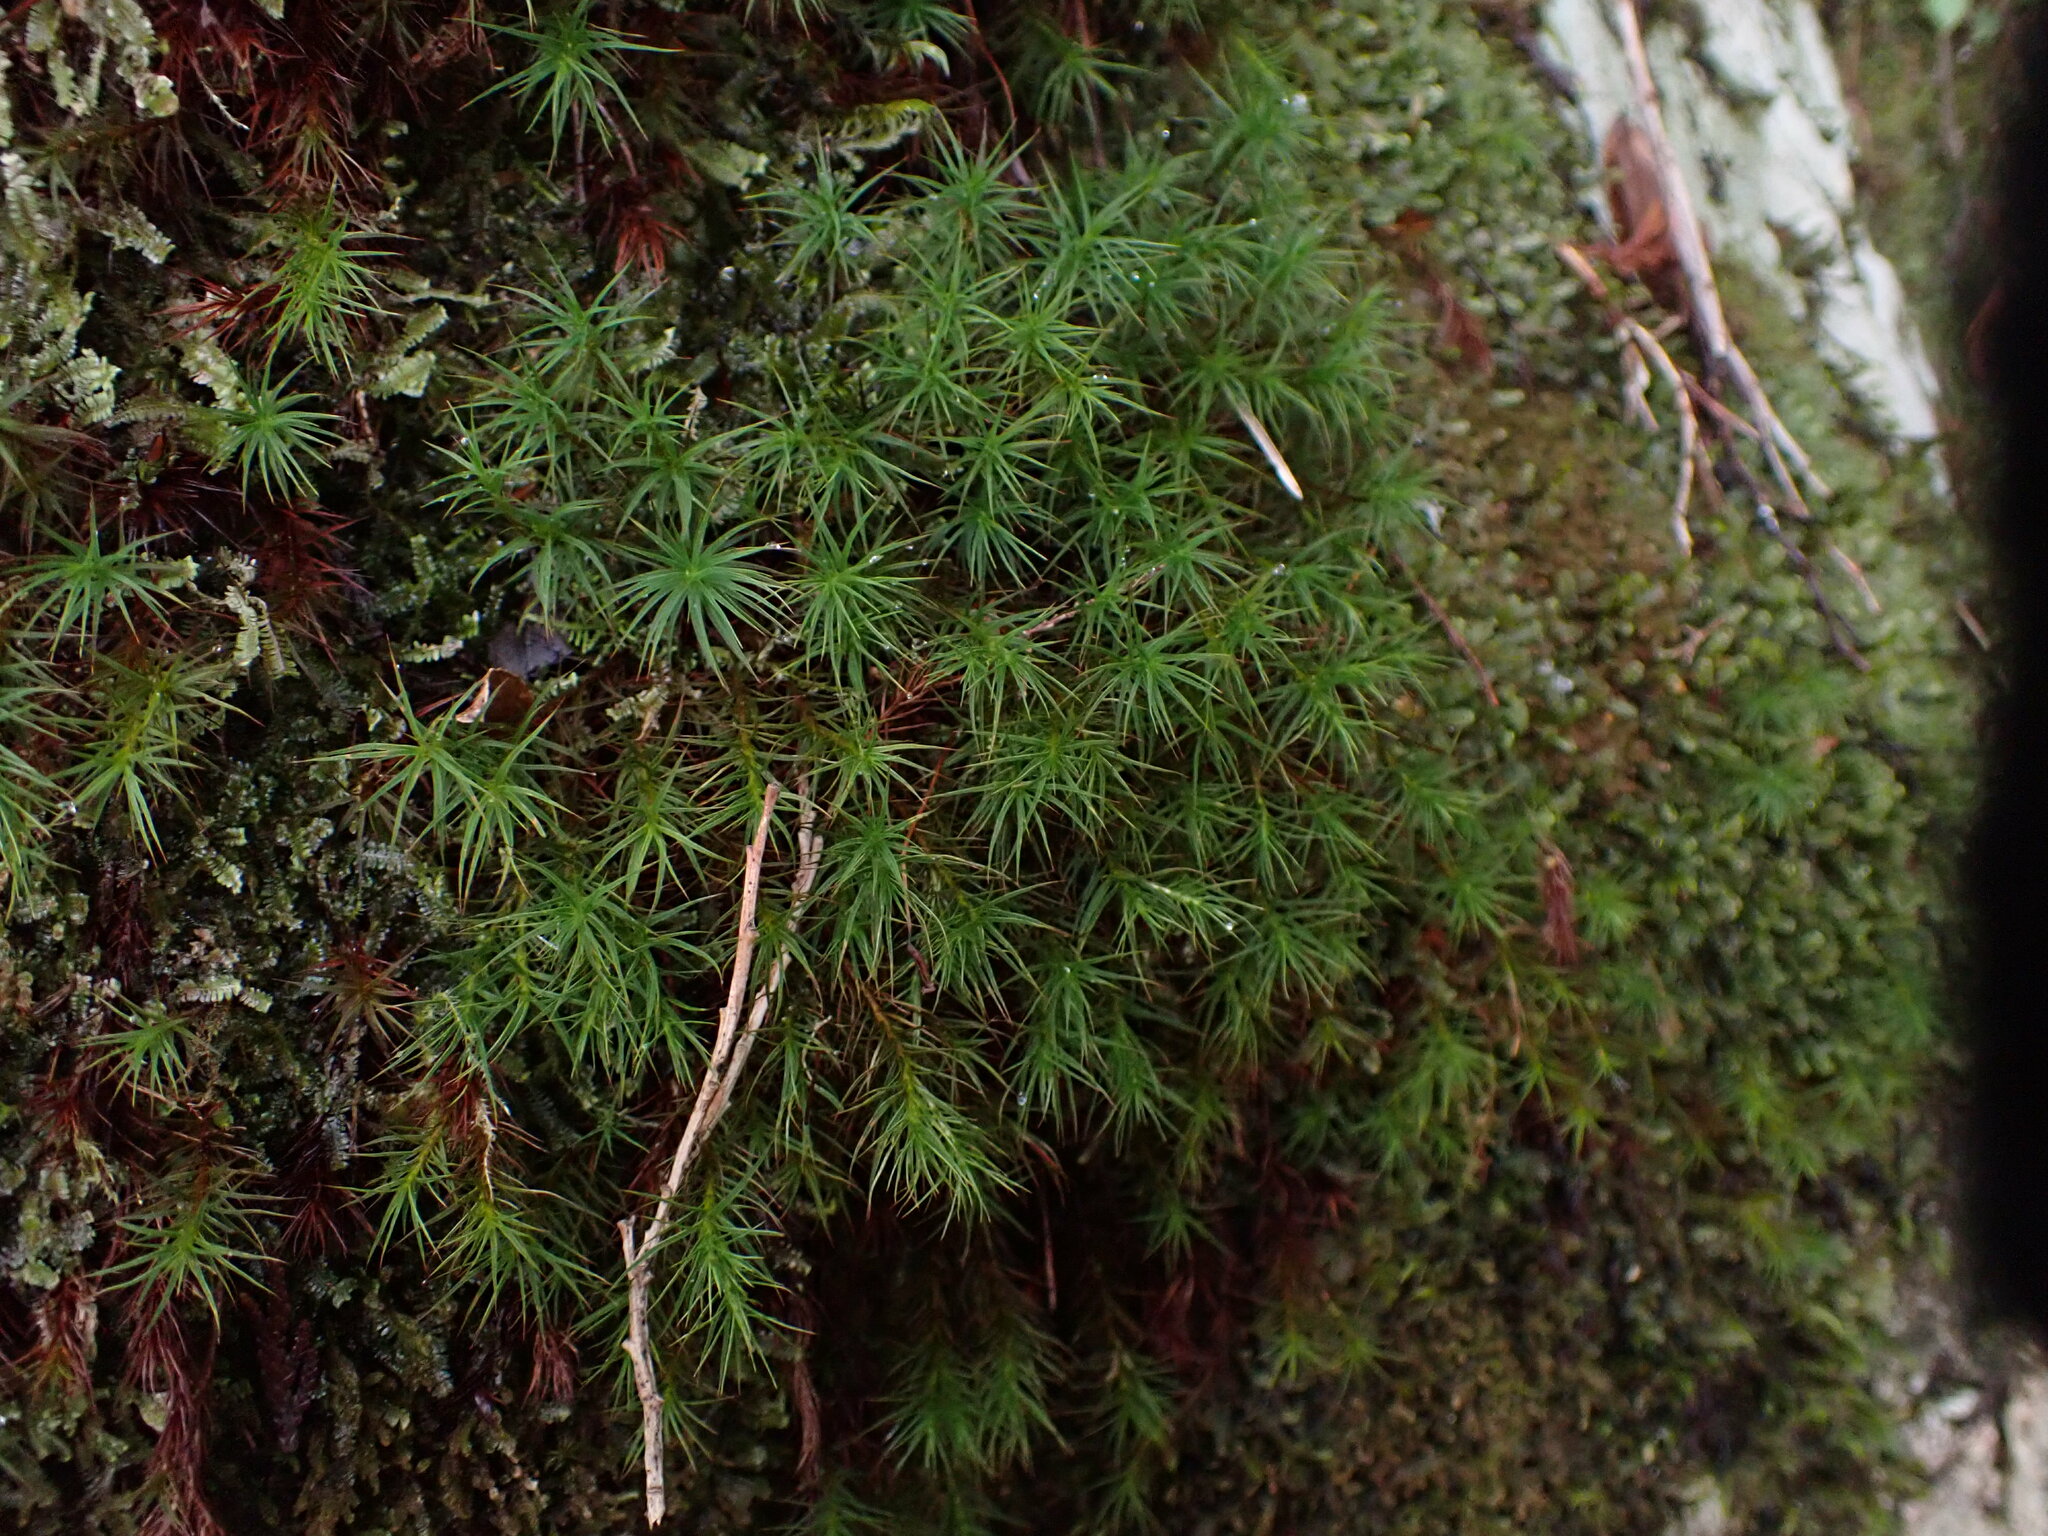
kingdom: Plantae
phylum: Bryophyta
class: Polytrichopsida
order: Polytrichales
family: Polytrichaceae
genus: Polytrichastrum
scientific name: Polytrichastrum alpinum
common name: Alpine haircap
